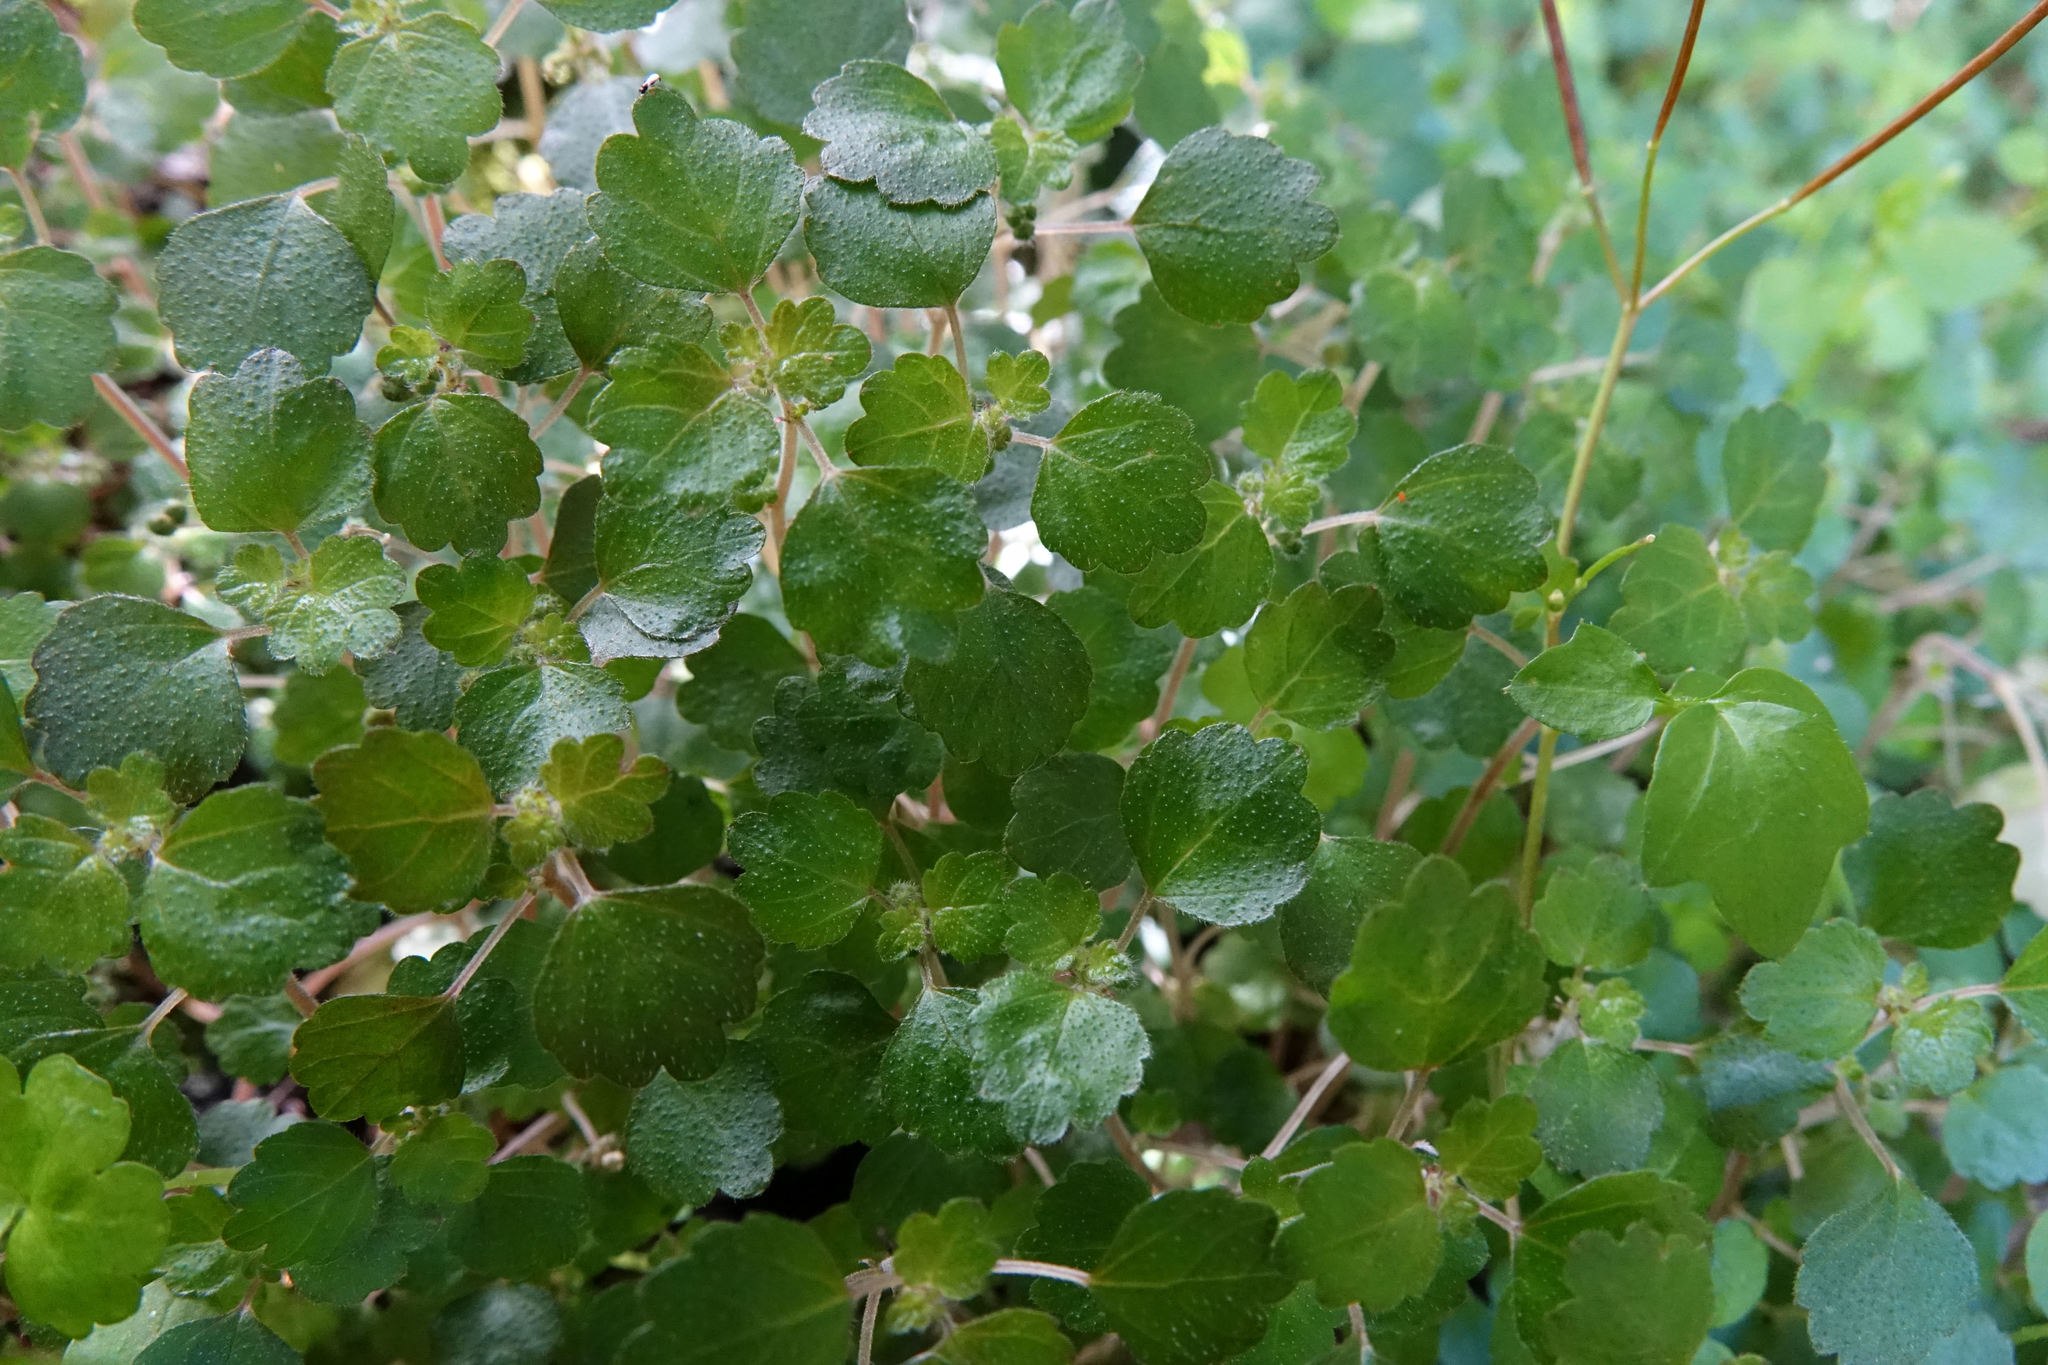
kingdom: Plantae
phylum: Tracheophyta
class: Magnoliopsida
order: Rosales
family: Urticaceae
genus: Australina
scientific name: Australina pusilla
